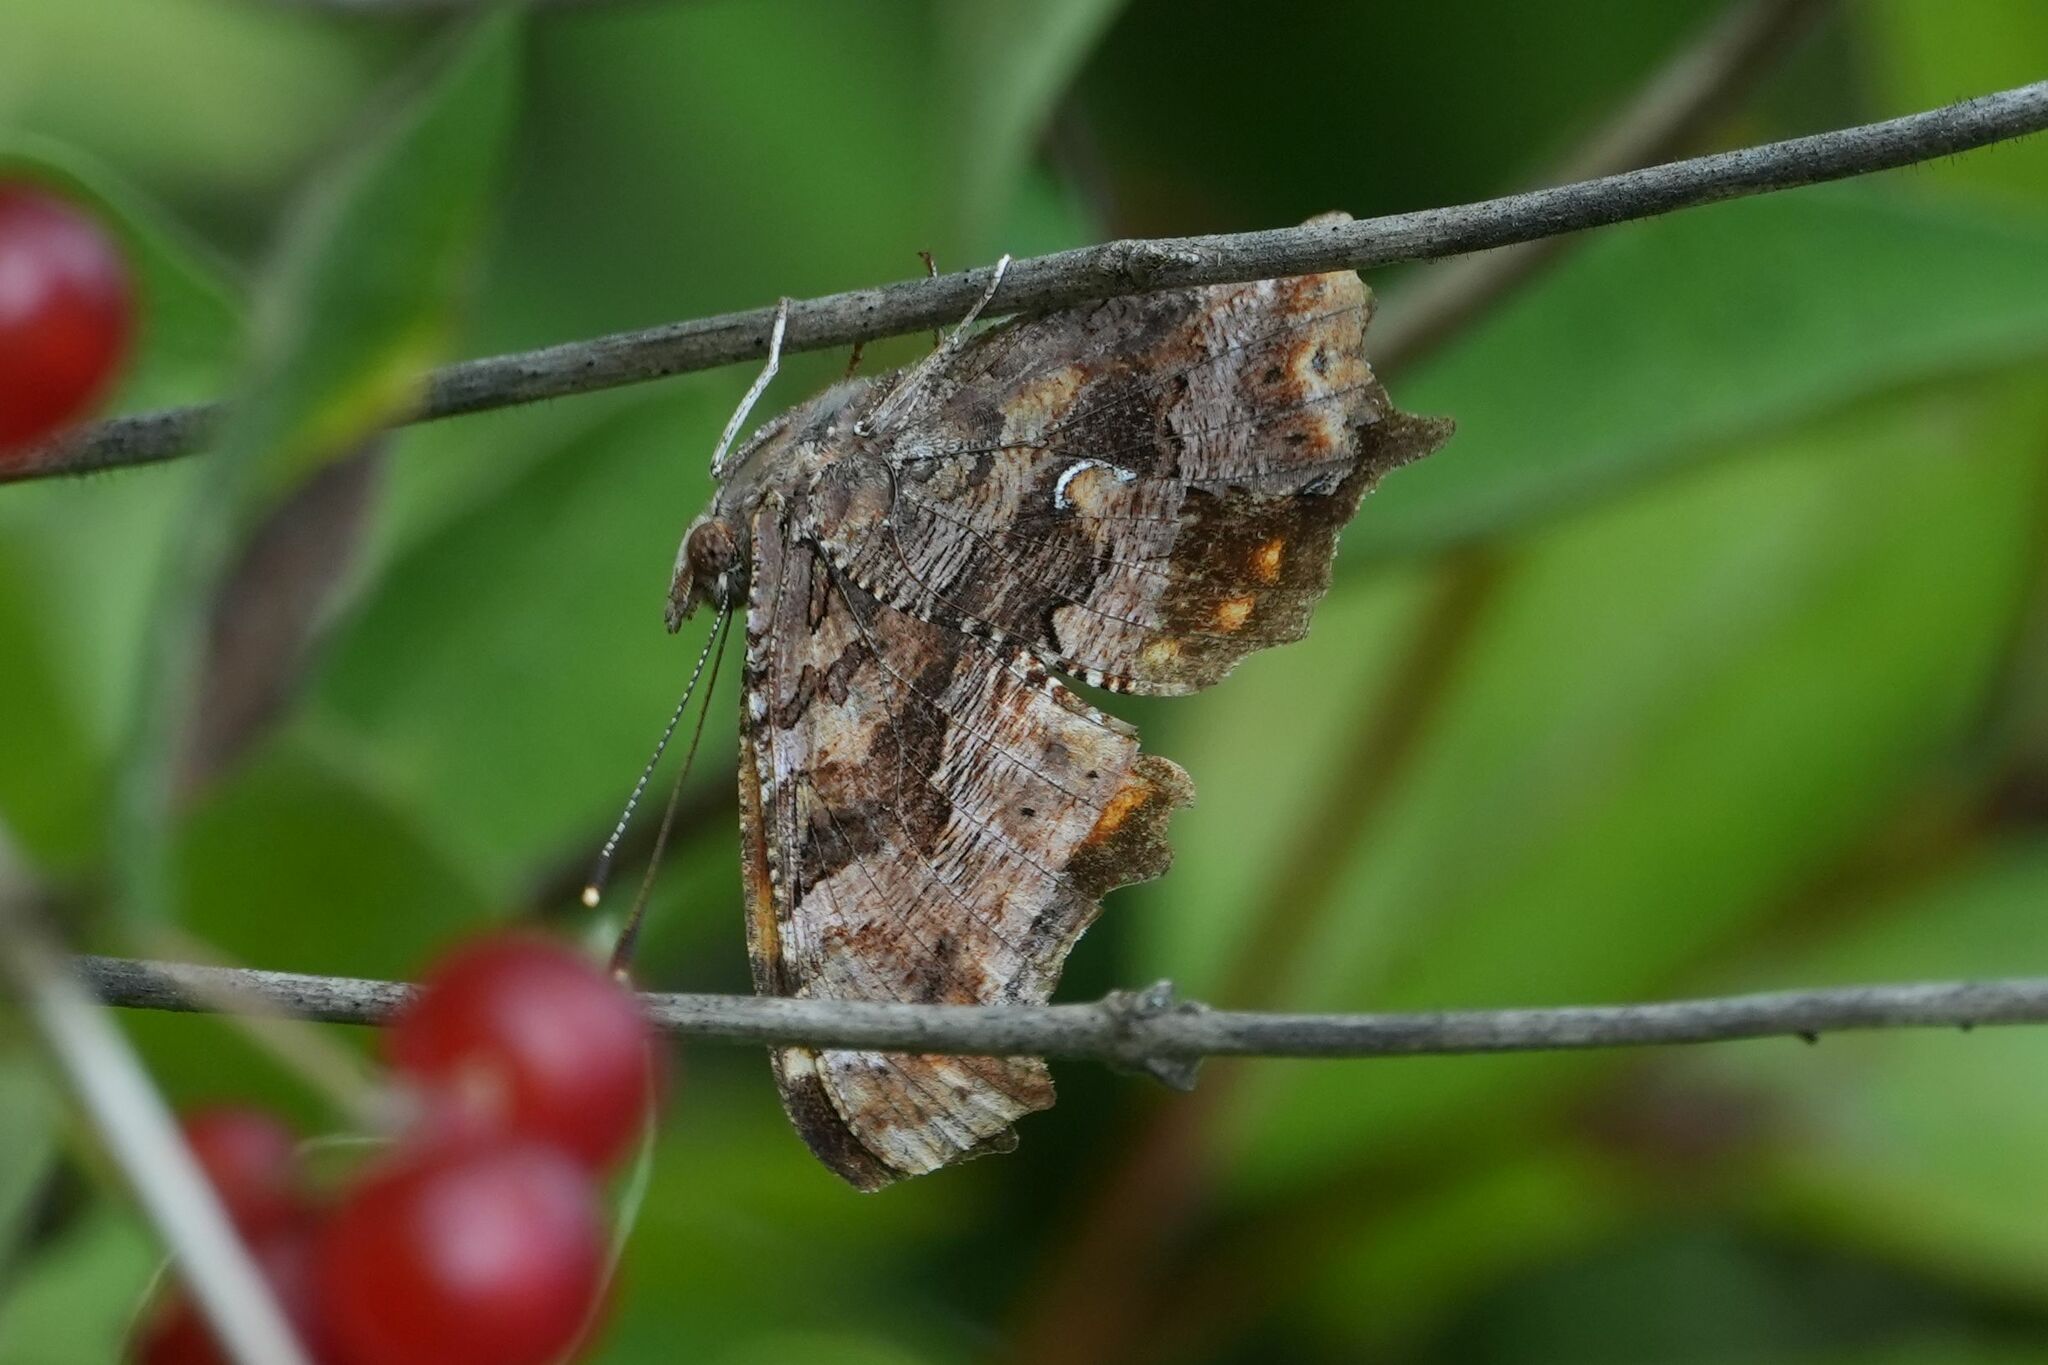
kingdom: Animalia
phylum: Arthropoda
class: Insecta
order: Lepidoptera
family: Nymphalidae
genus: Polygonia
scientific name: Polygonia comma
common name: Eastern comma
